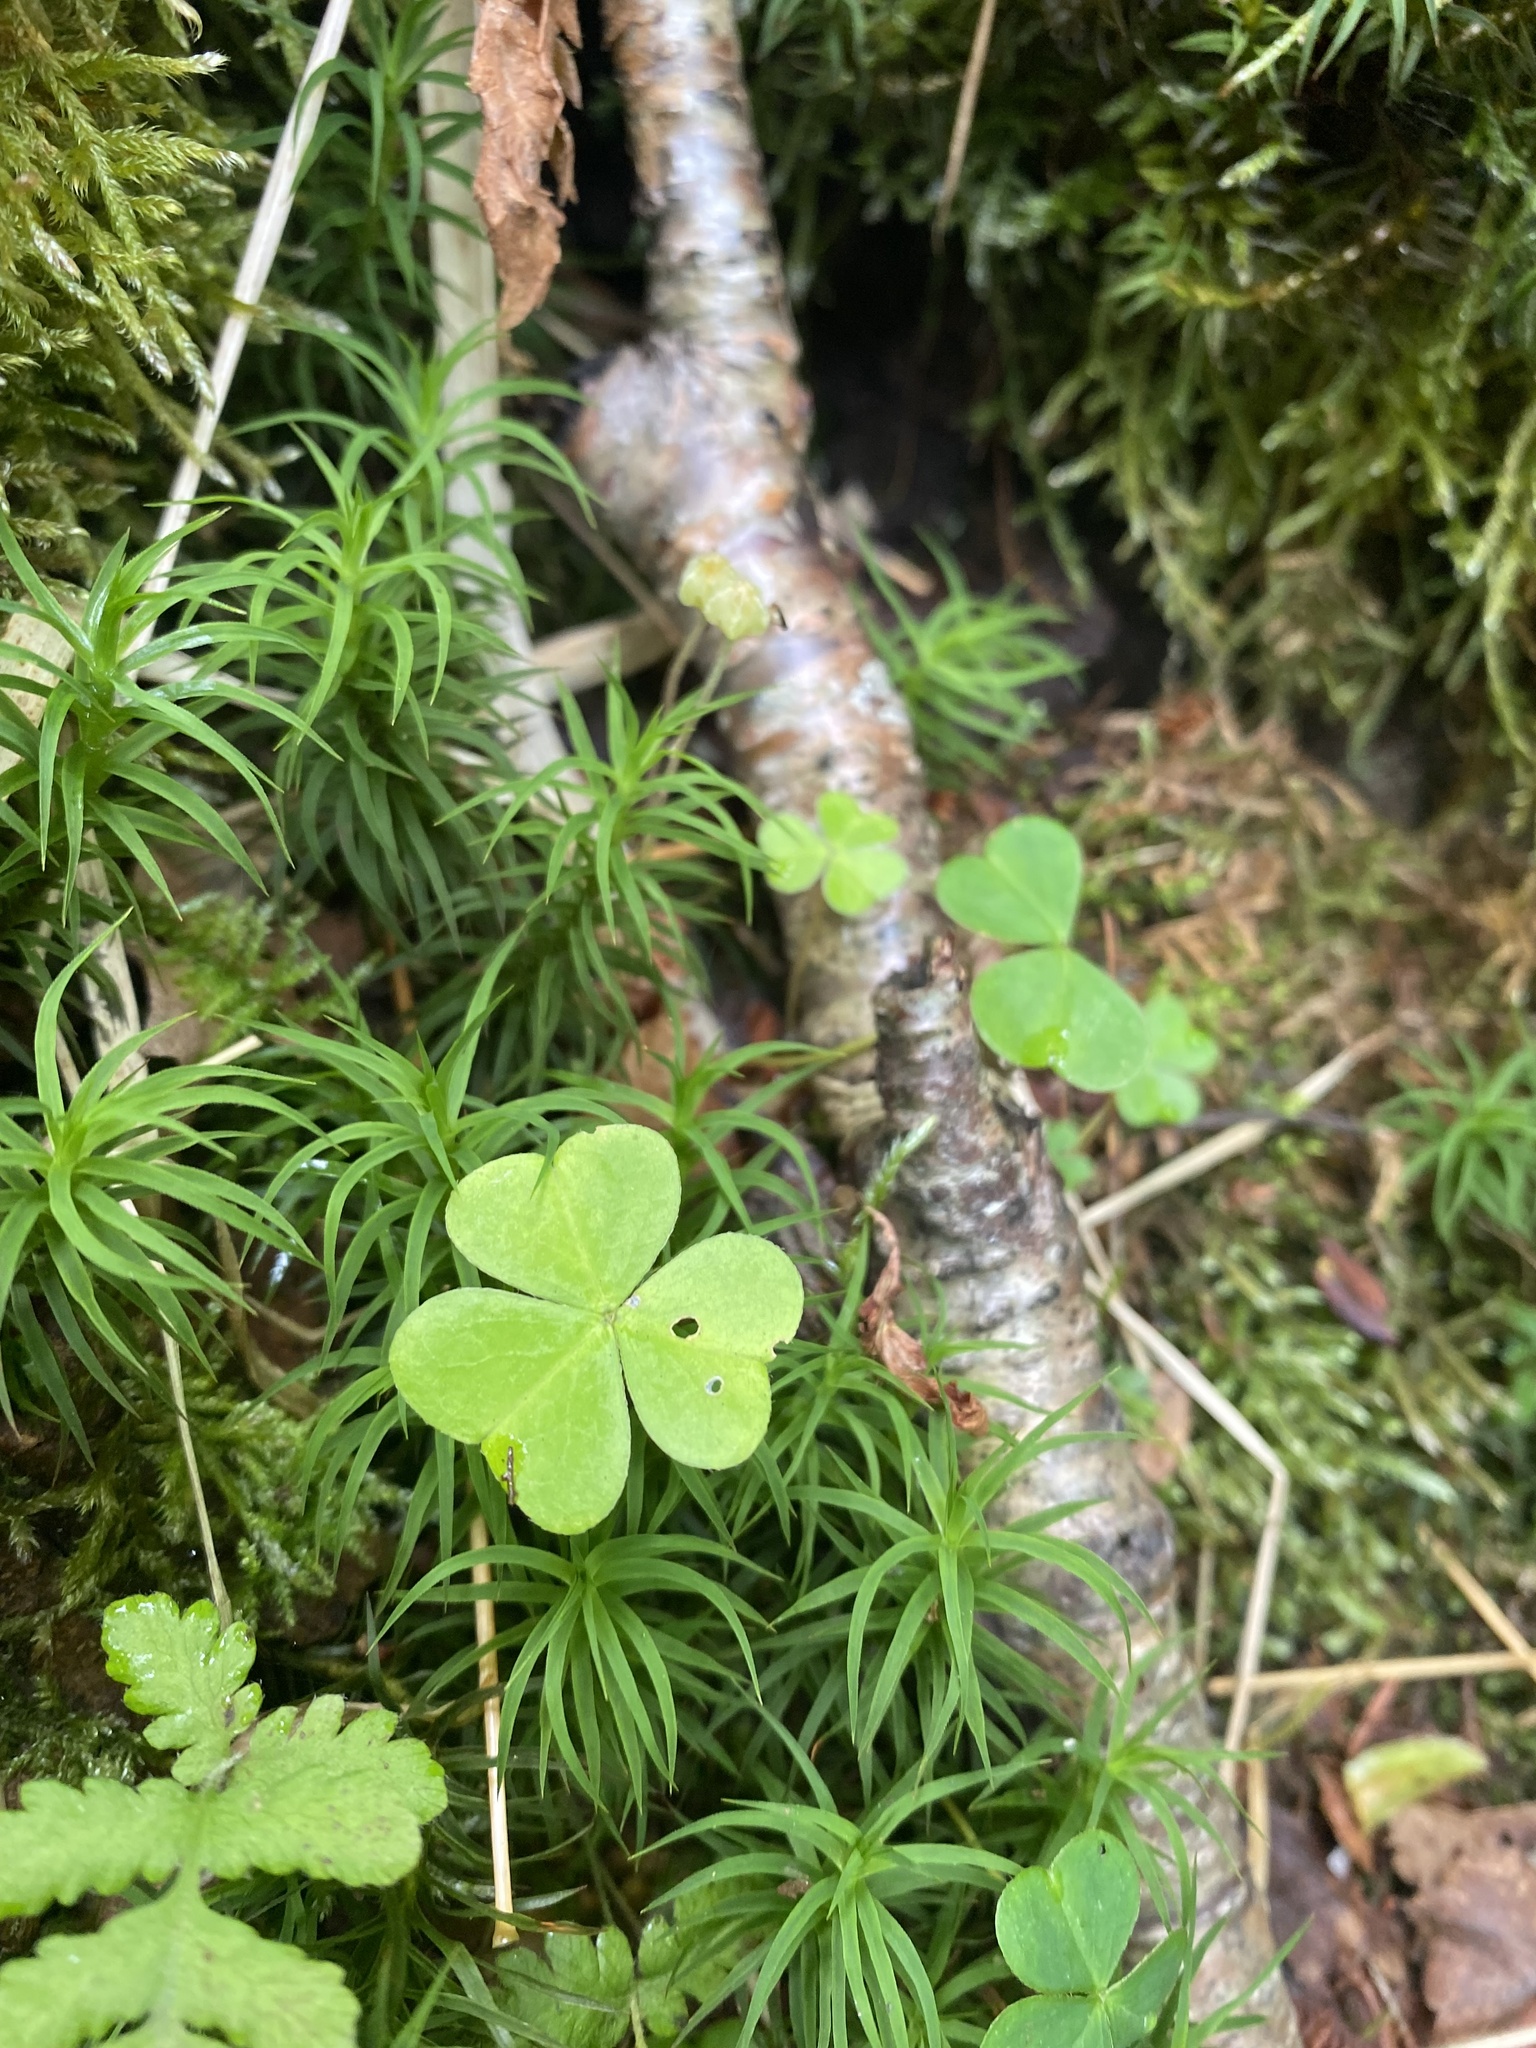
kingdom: Plantae
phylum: Tracheophyta
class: Magnoliopsida
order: Oxalidales
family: Oxalidaceae
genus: Oxalis
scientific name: Oxalis acetosella
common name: Wood-sorrel
